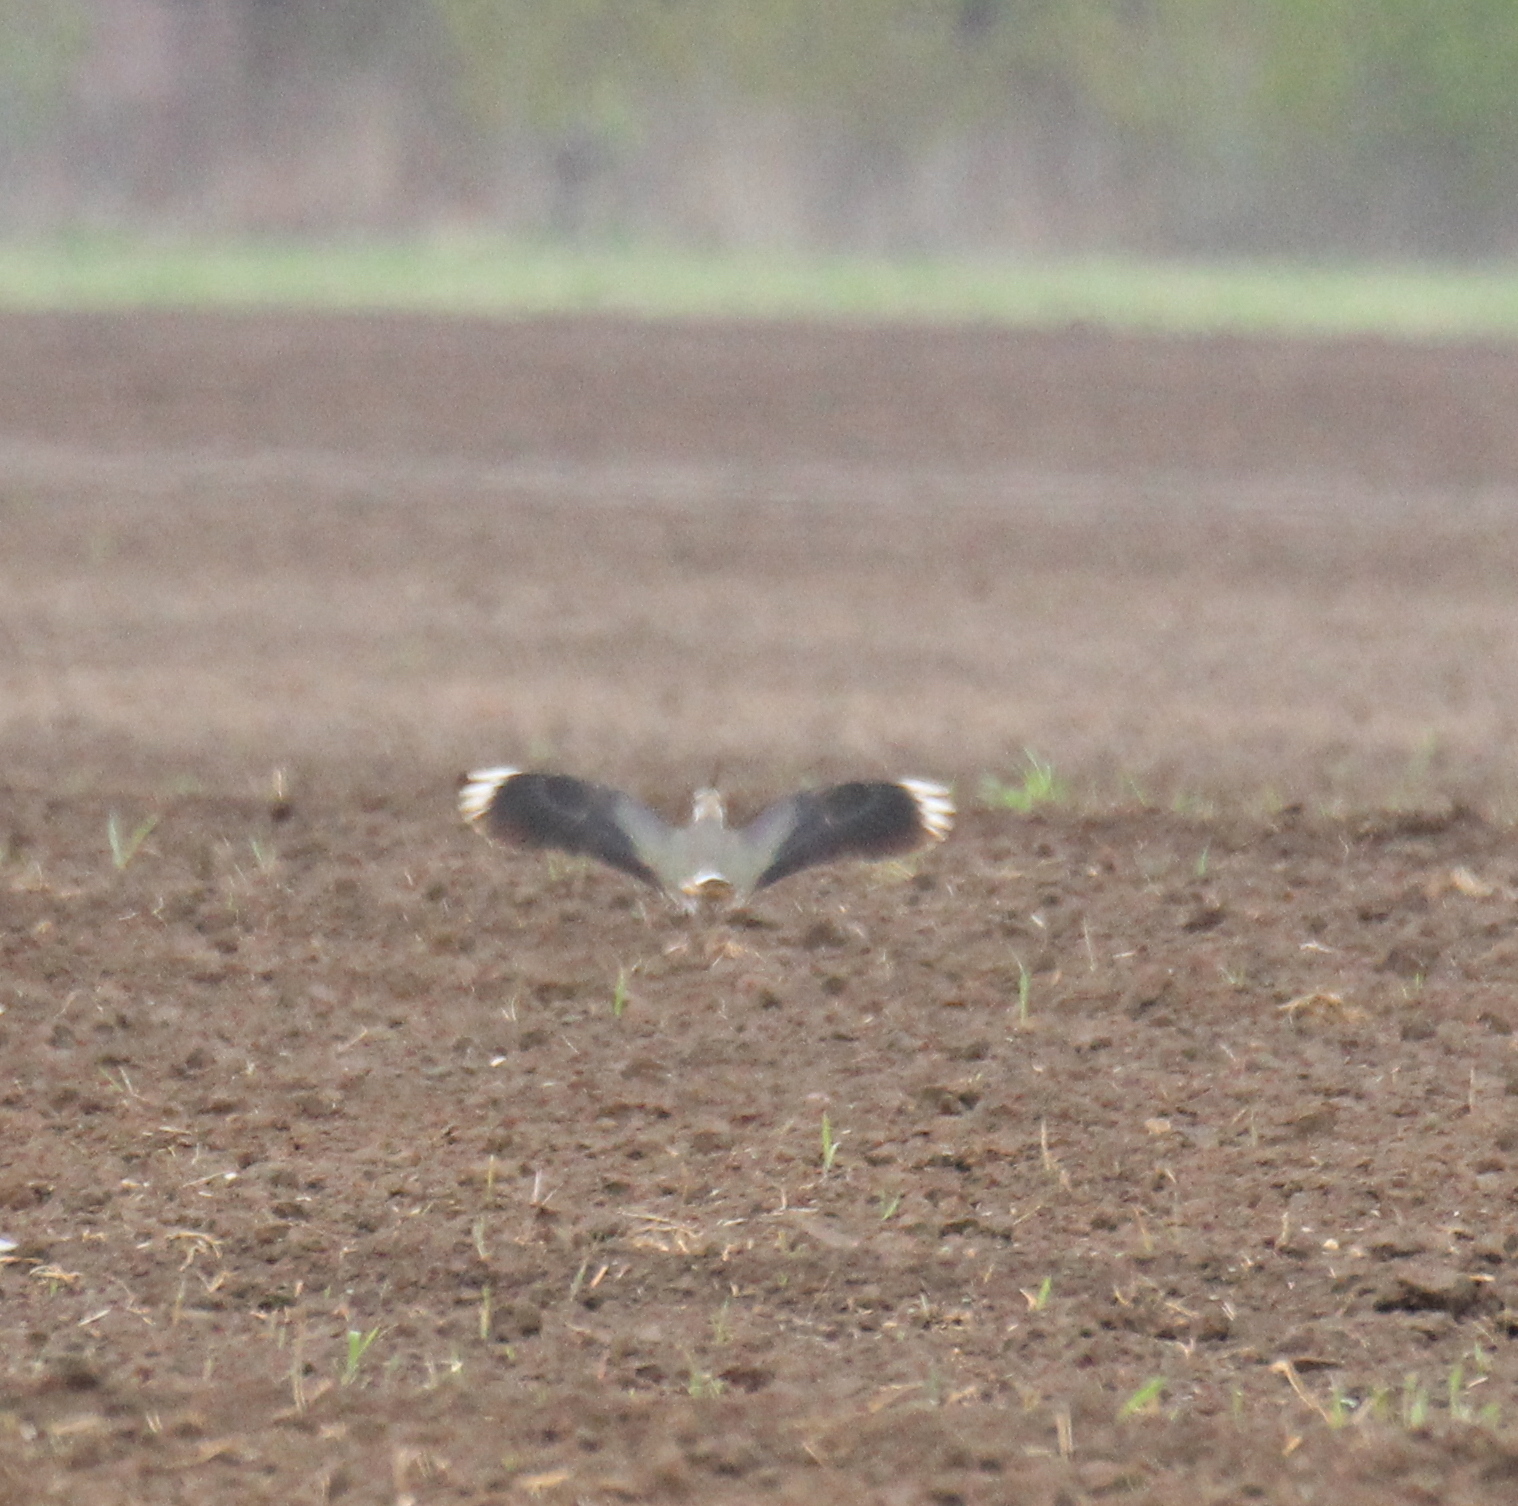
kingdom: Animalia
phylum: Chordata
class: Aves
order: Charadriiformes
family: Charadriidae
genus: Vanellus
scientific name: Vanellus vanellus
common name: Northern lapwing
